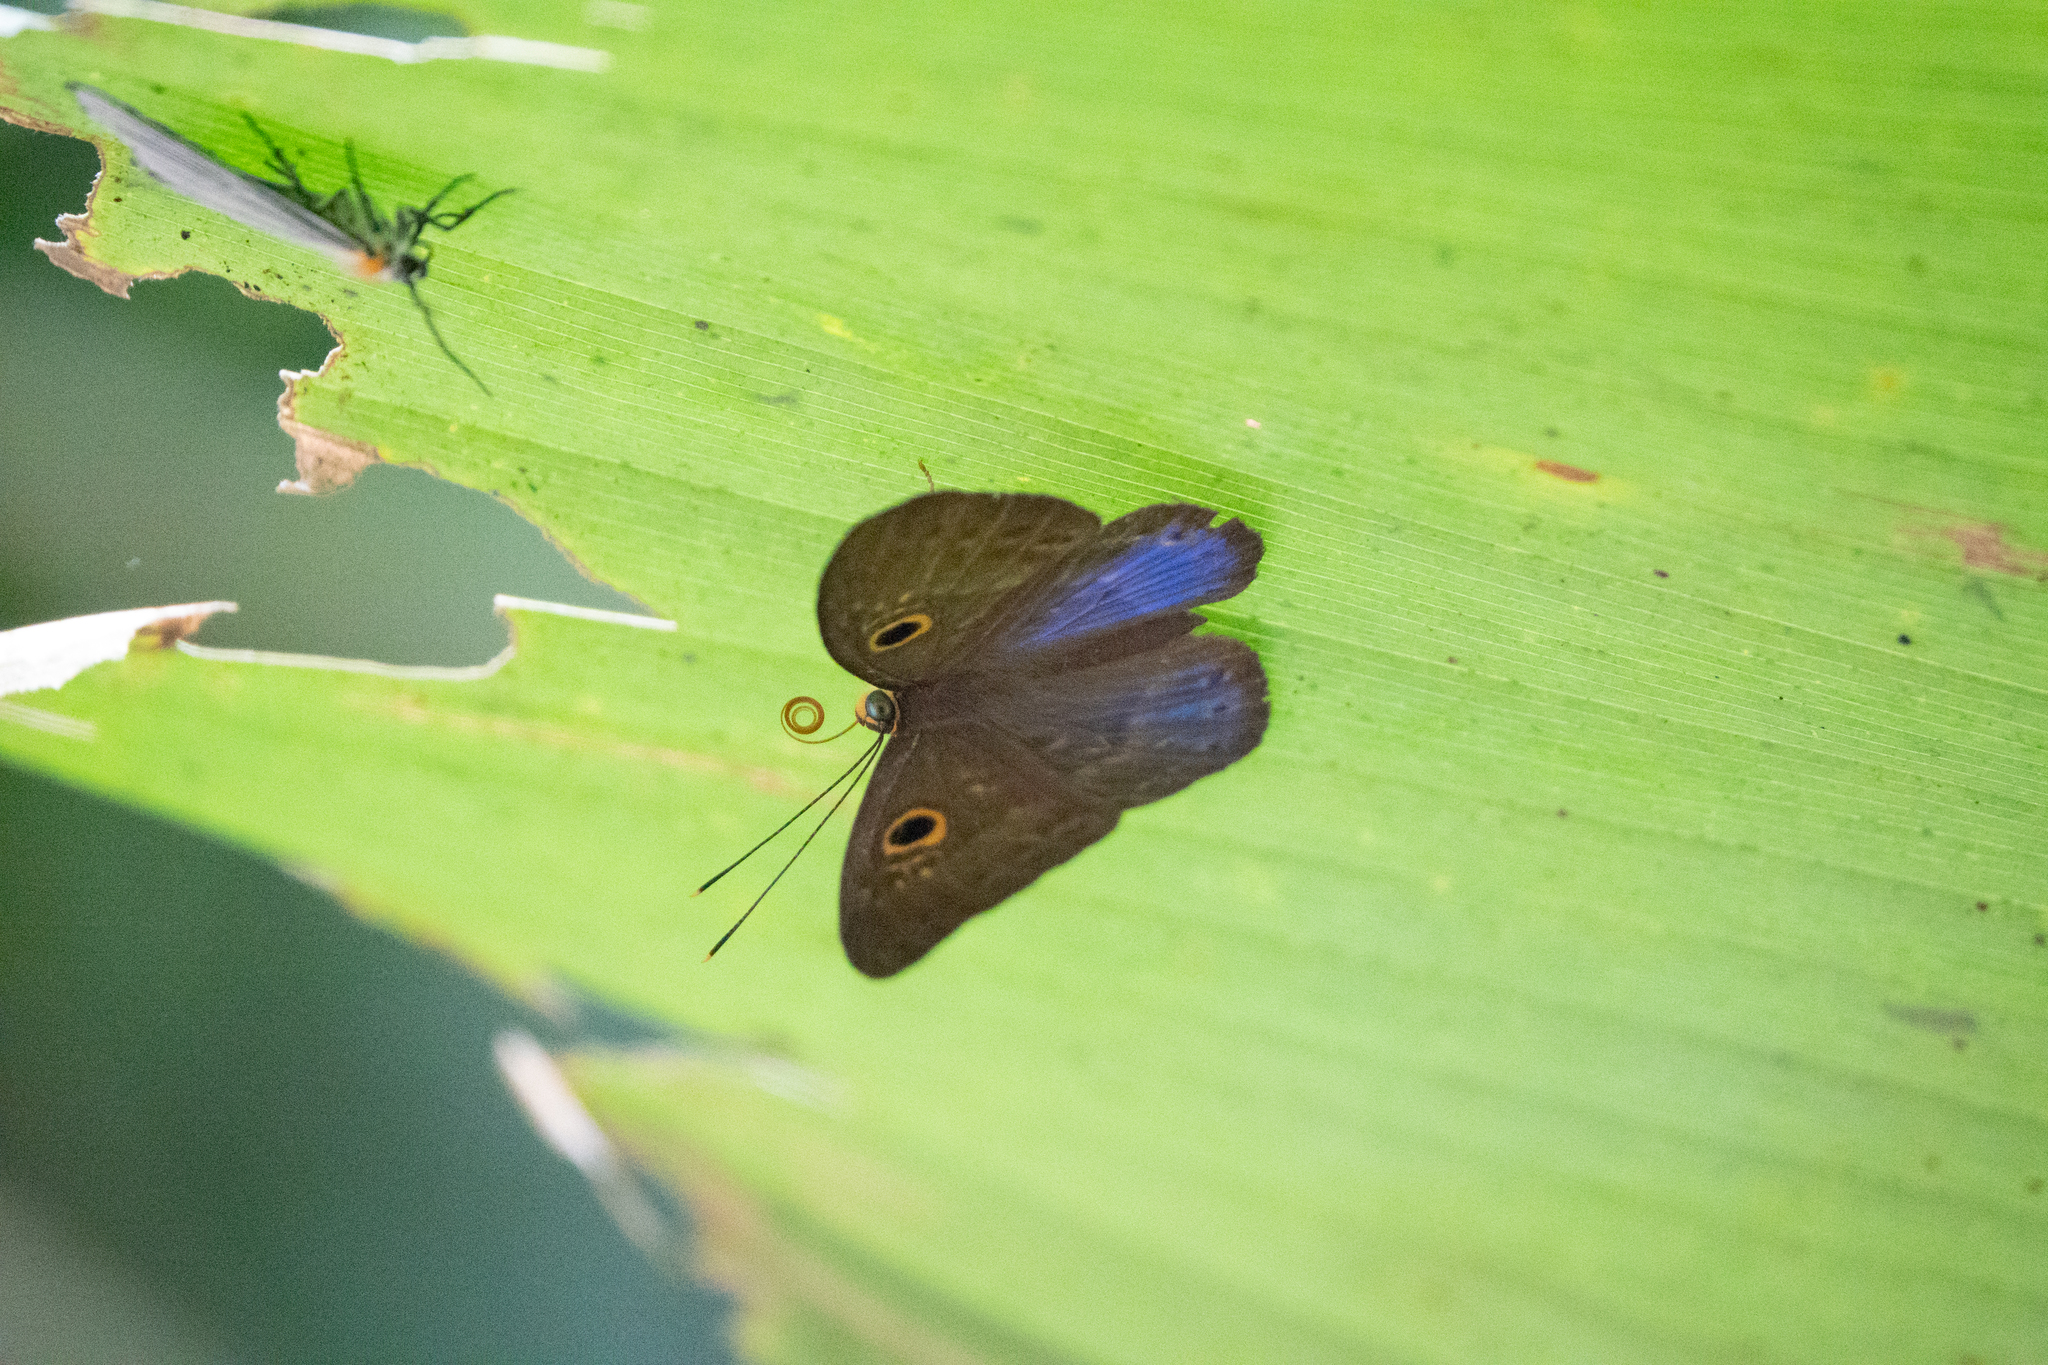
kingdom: Animalia
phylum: Cnidaria
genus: Eurybia
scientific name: Eurybia lycisca
